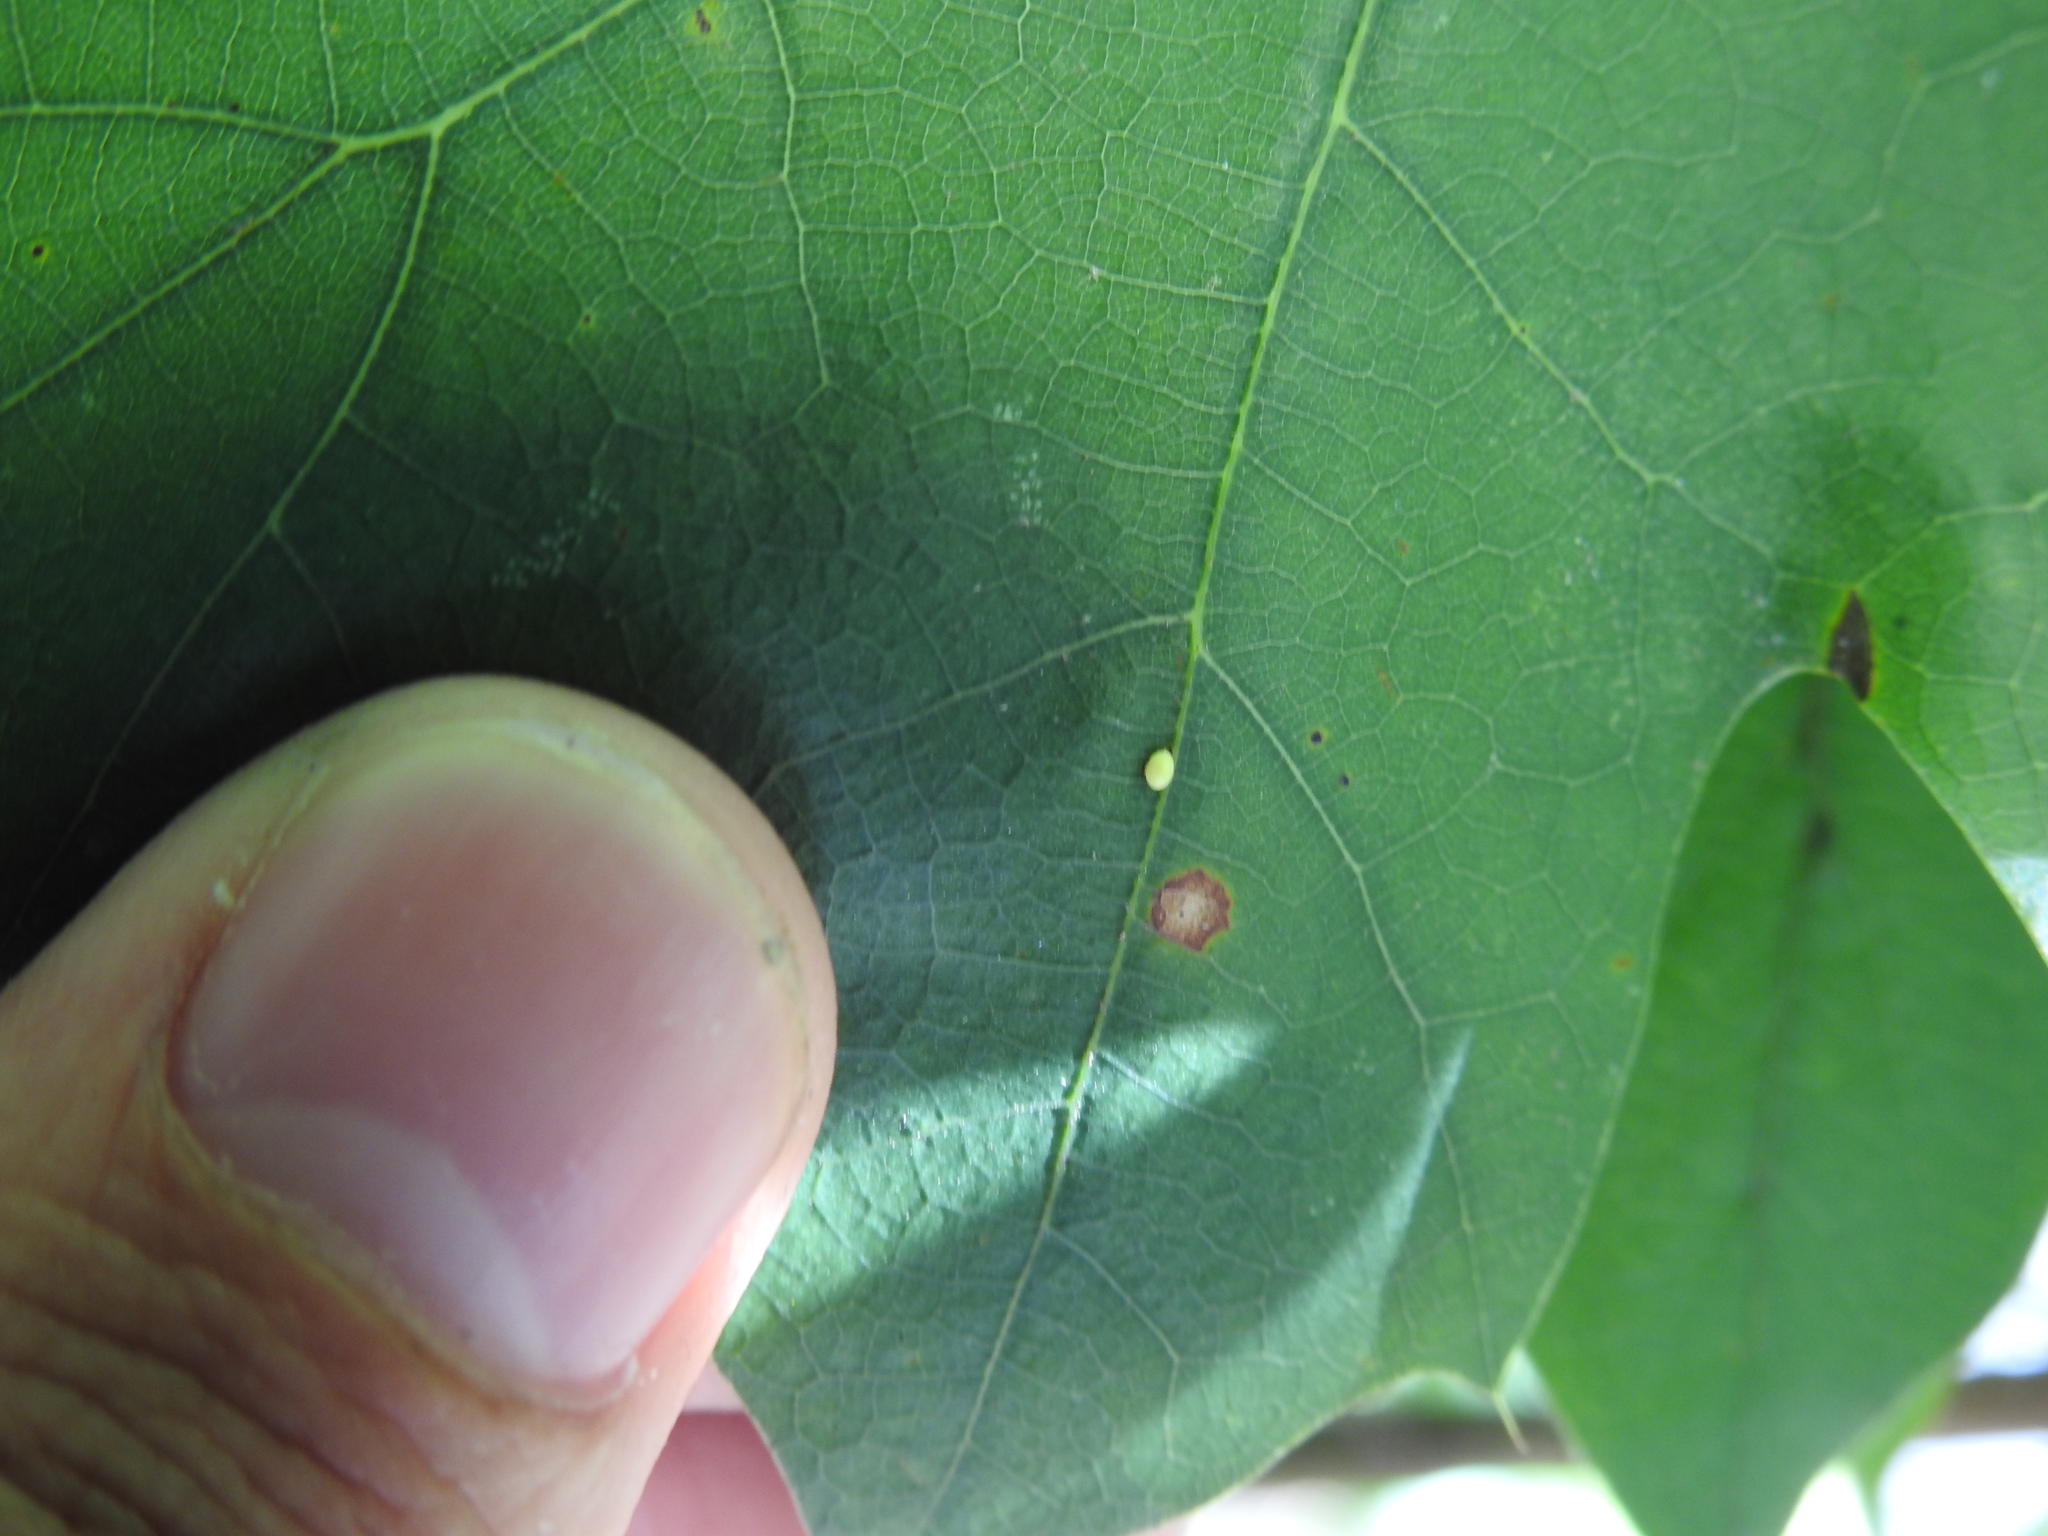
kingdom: Animalia
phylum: Arthropoda
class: Insecta
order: Hymenoptera
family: Cynipidae
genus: Zopheroteras
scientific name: Zopheroteras
